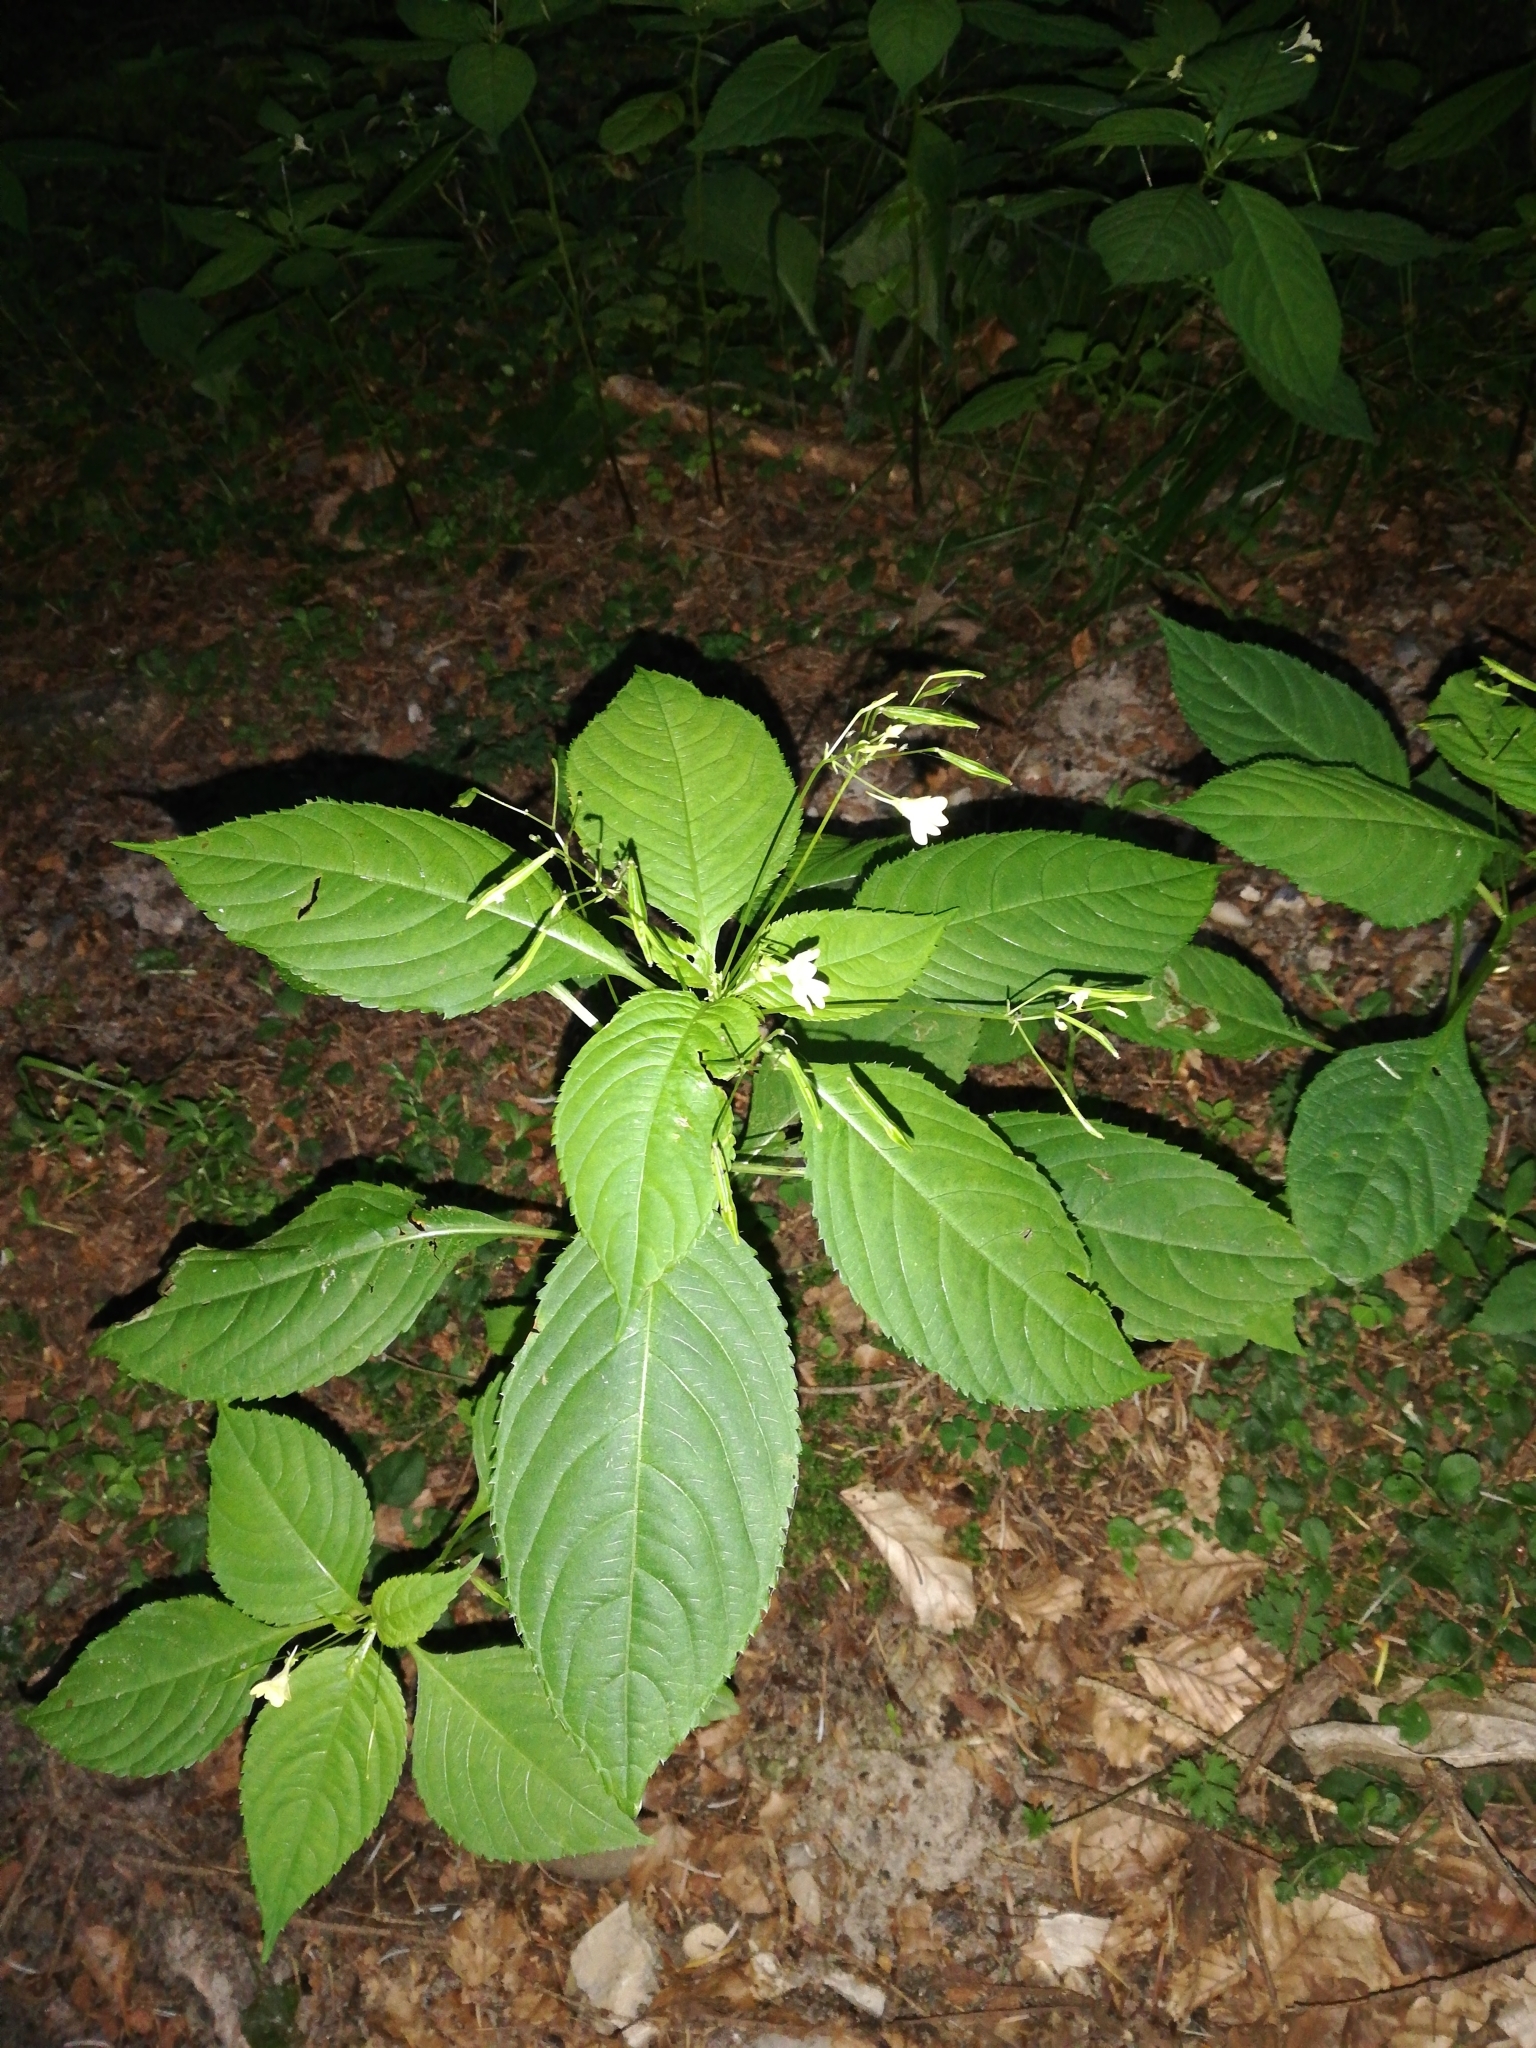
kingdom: Plantae
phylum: Tracheophyta
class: Magnoliopsida
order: Ericales
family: Balsaminaceae
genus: Impatiens
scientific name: Impatiens parviflora
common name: Small balsam
